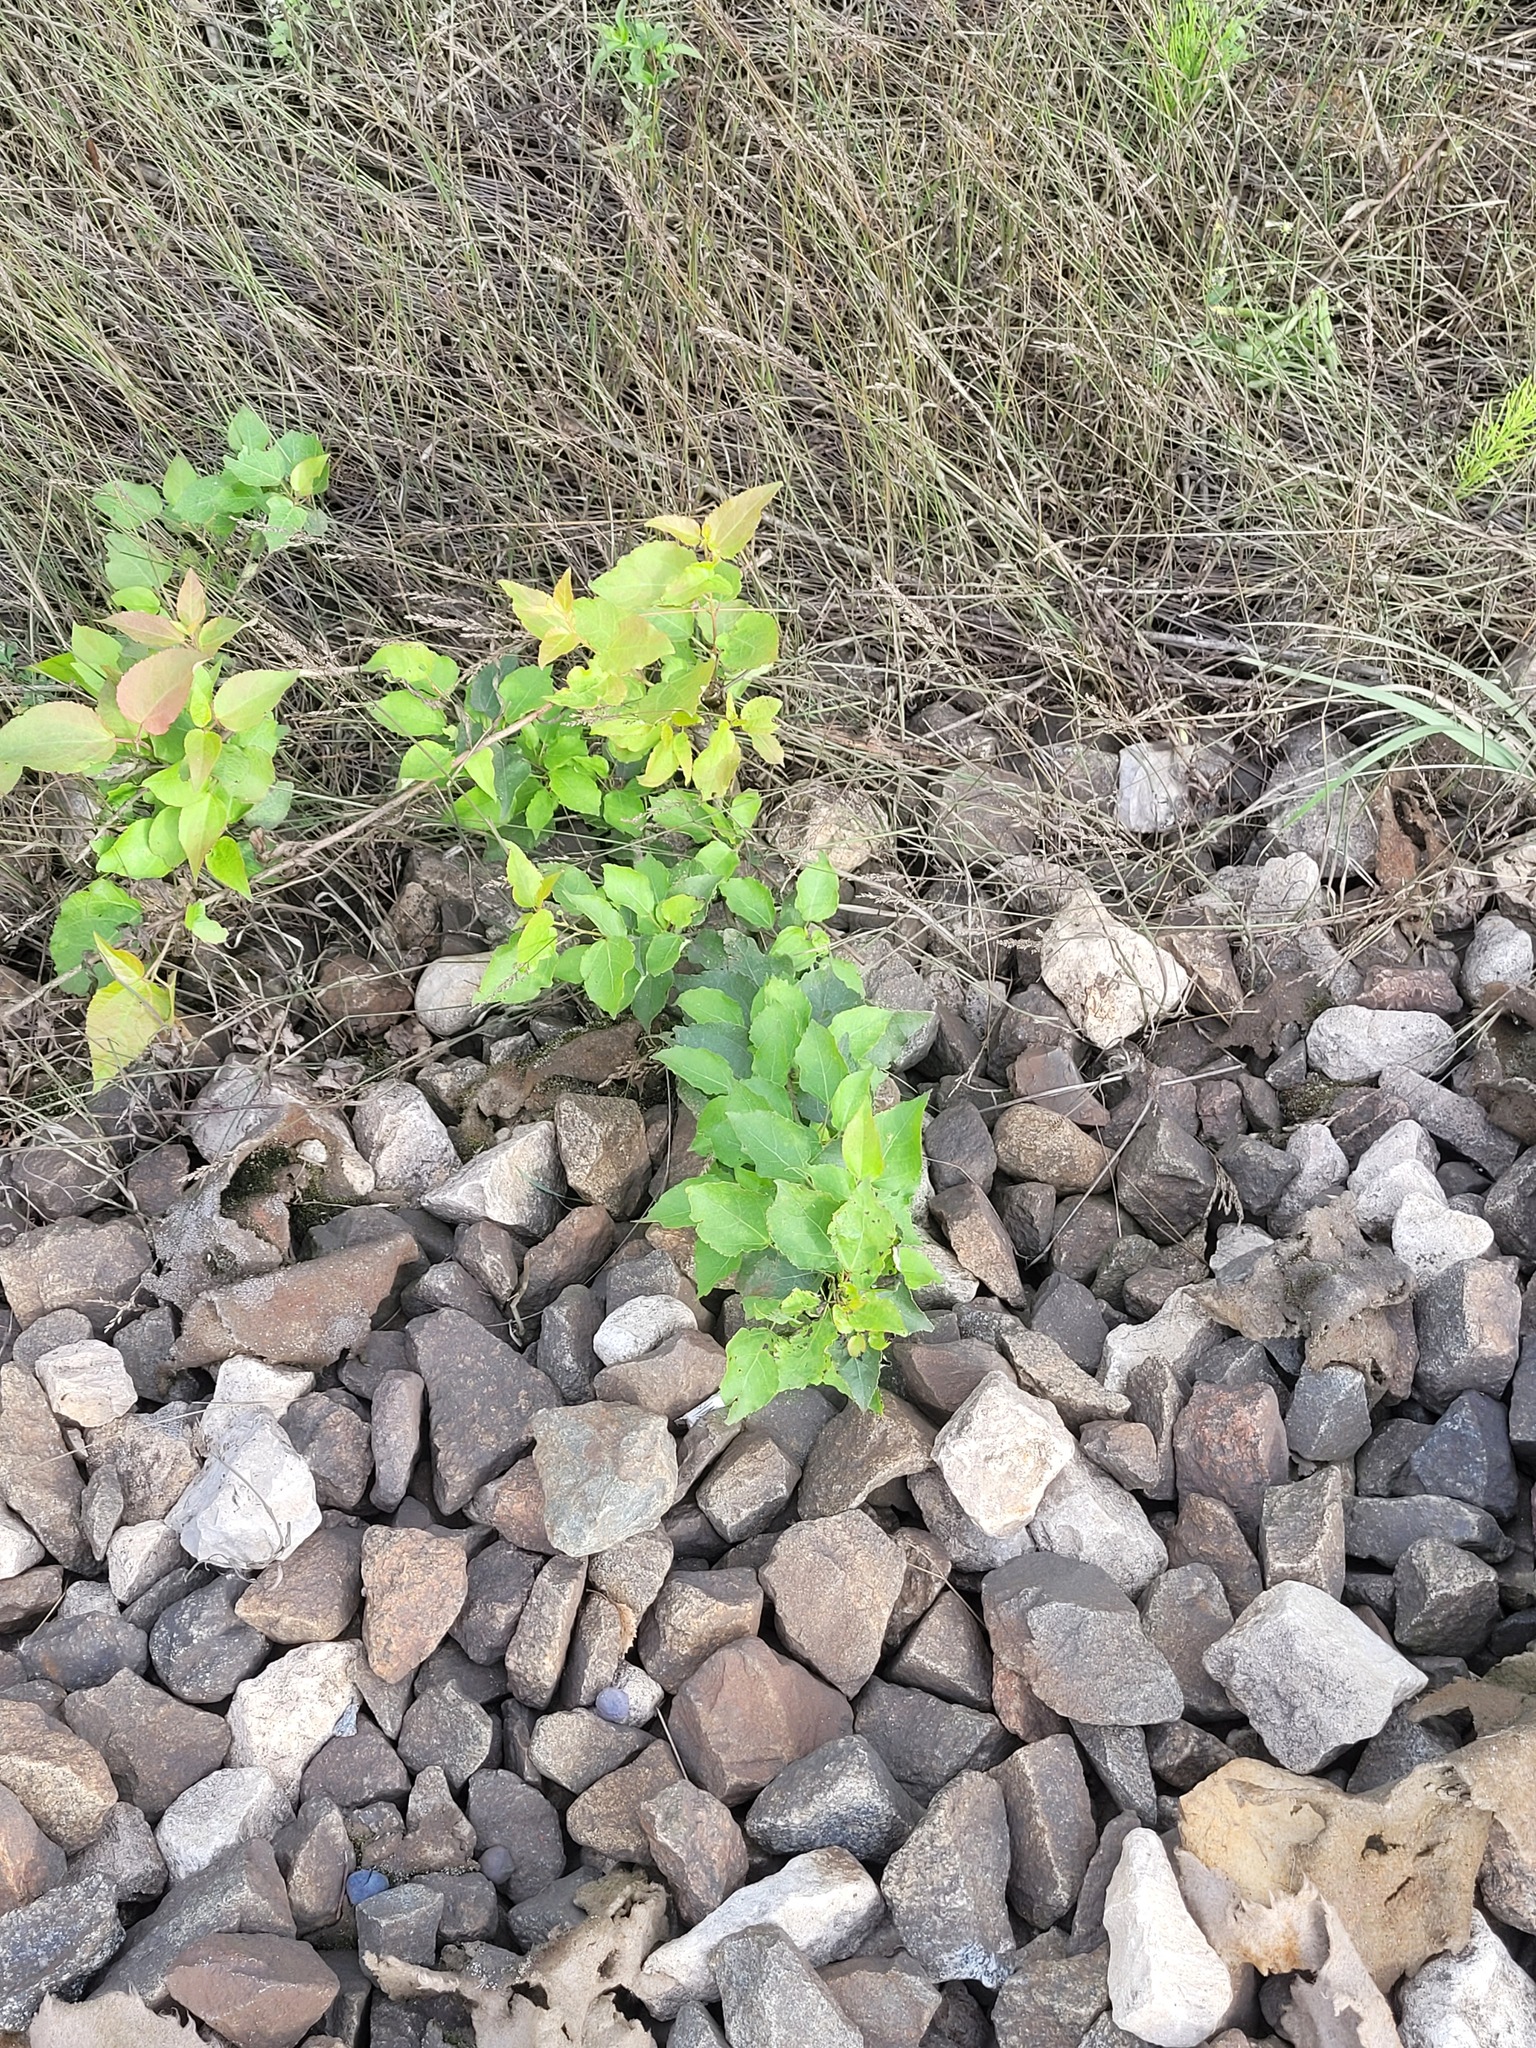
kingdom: Plantae
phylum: Tracheophyta
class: Magnoliopsida
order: Malpighiales
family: Salicaceae
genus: Populus
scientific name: Populus tremula
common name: European aspen
